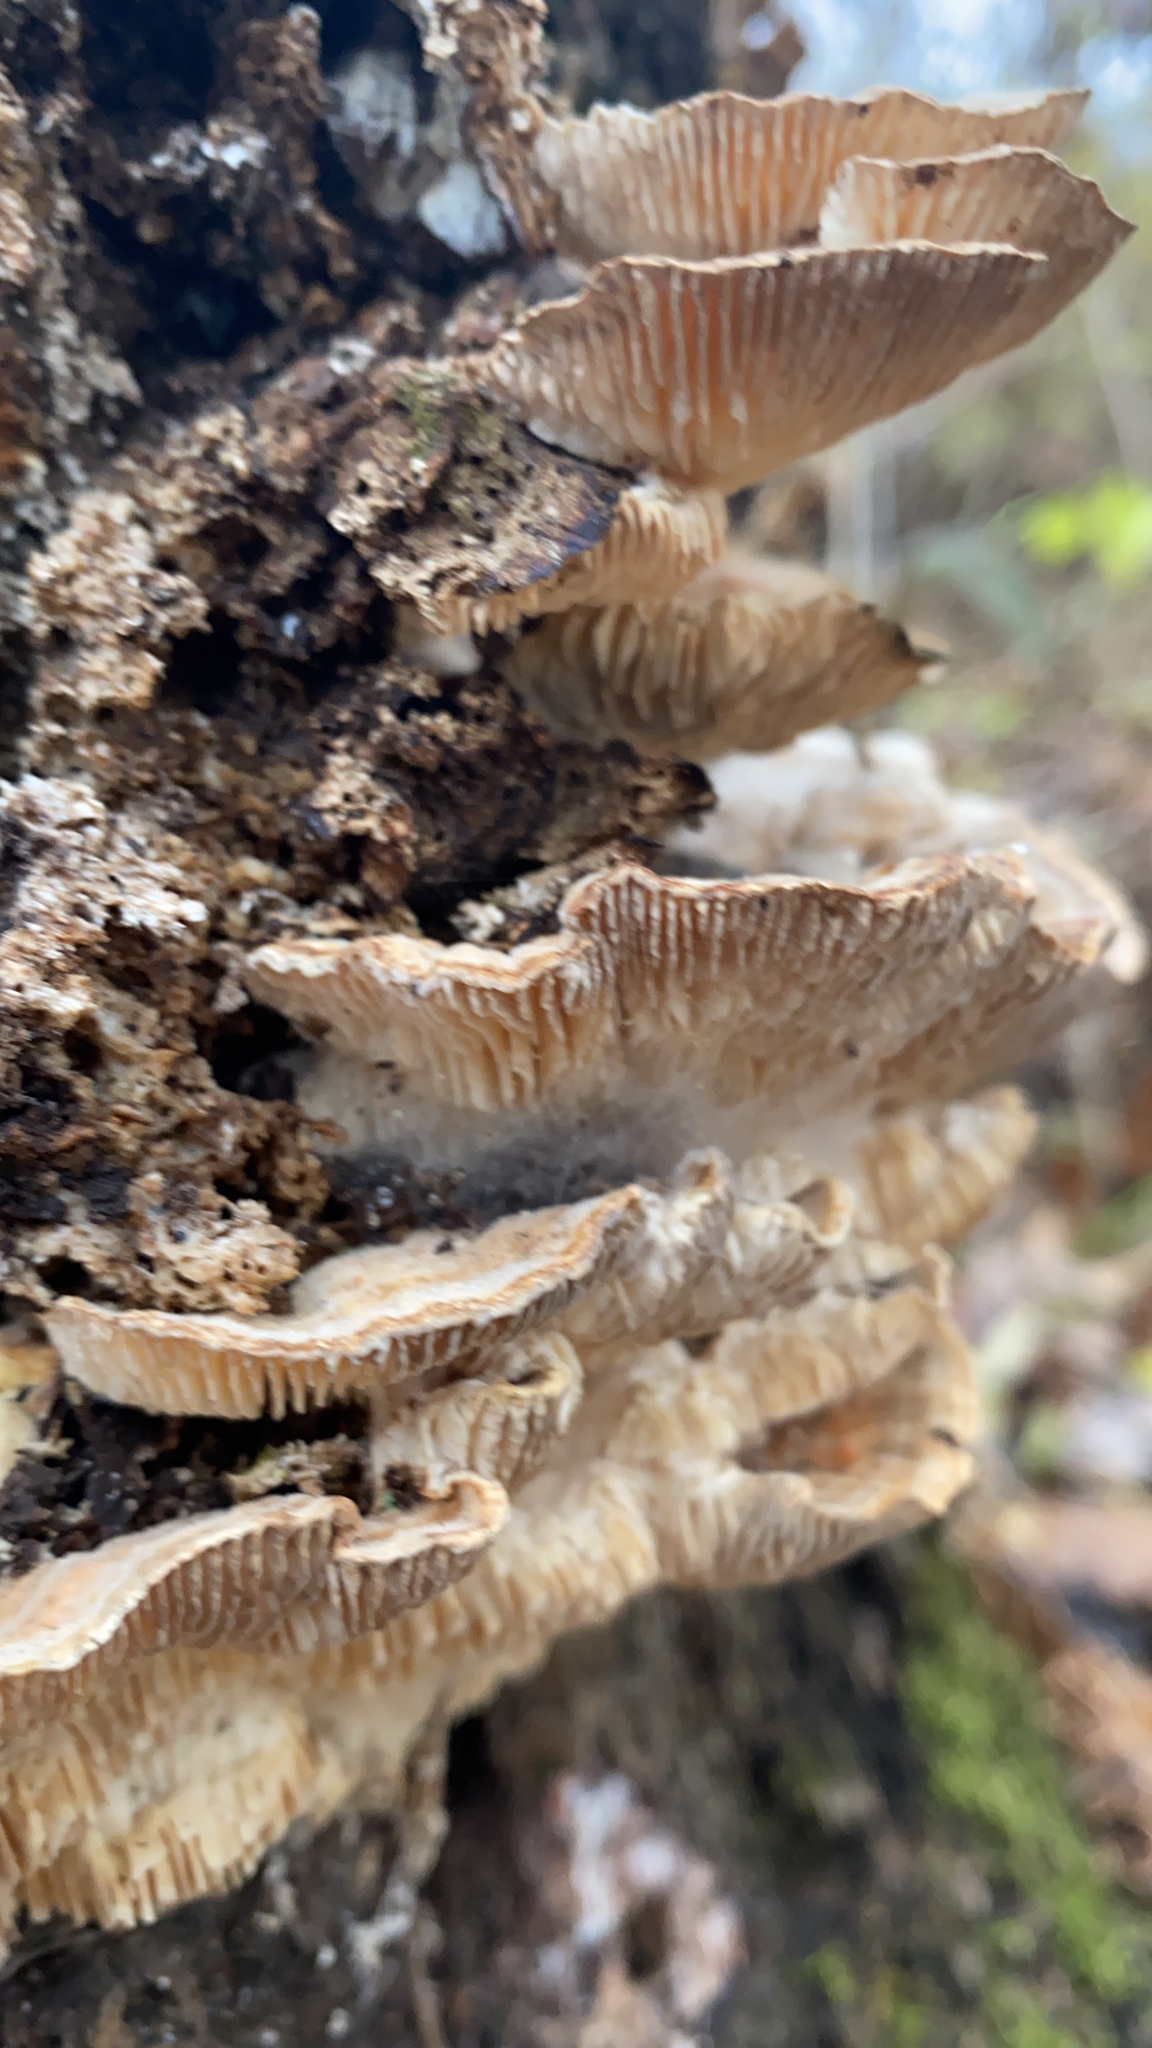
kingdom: Fungi
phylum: Basidiomycota
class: Agaricomycetes
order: Polyporales
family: Polyporaceae
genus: Lenzites
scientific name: Lenzites betulinus
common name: Birch mazegill
